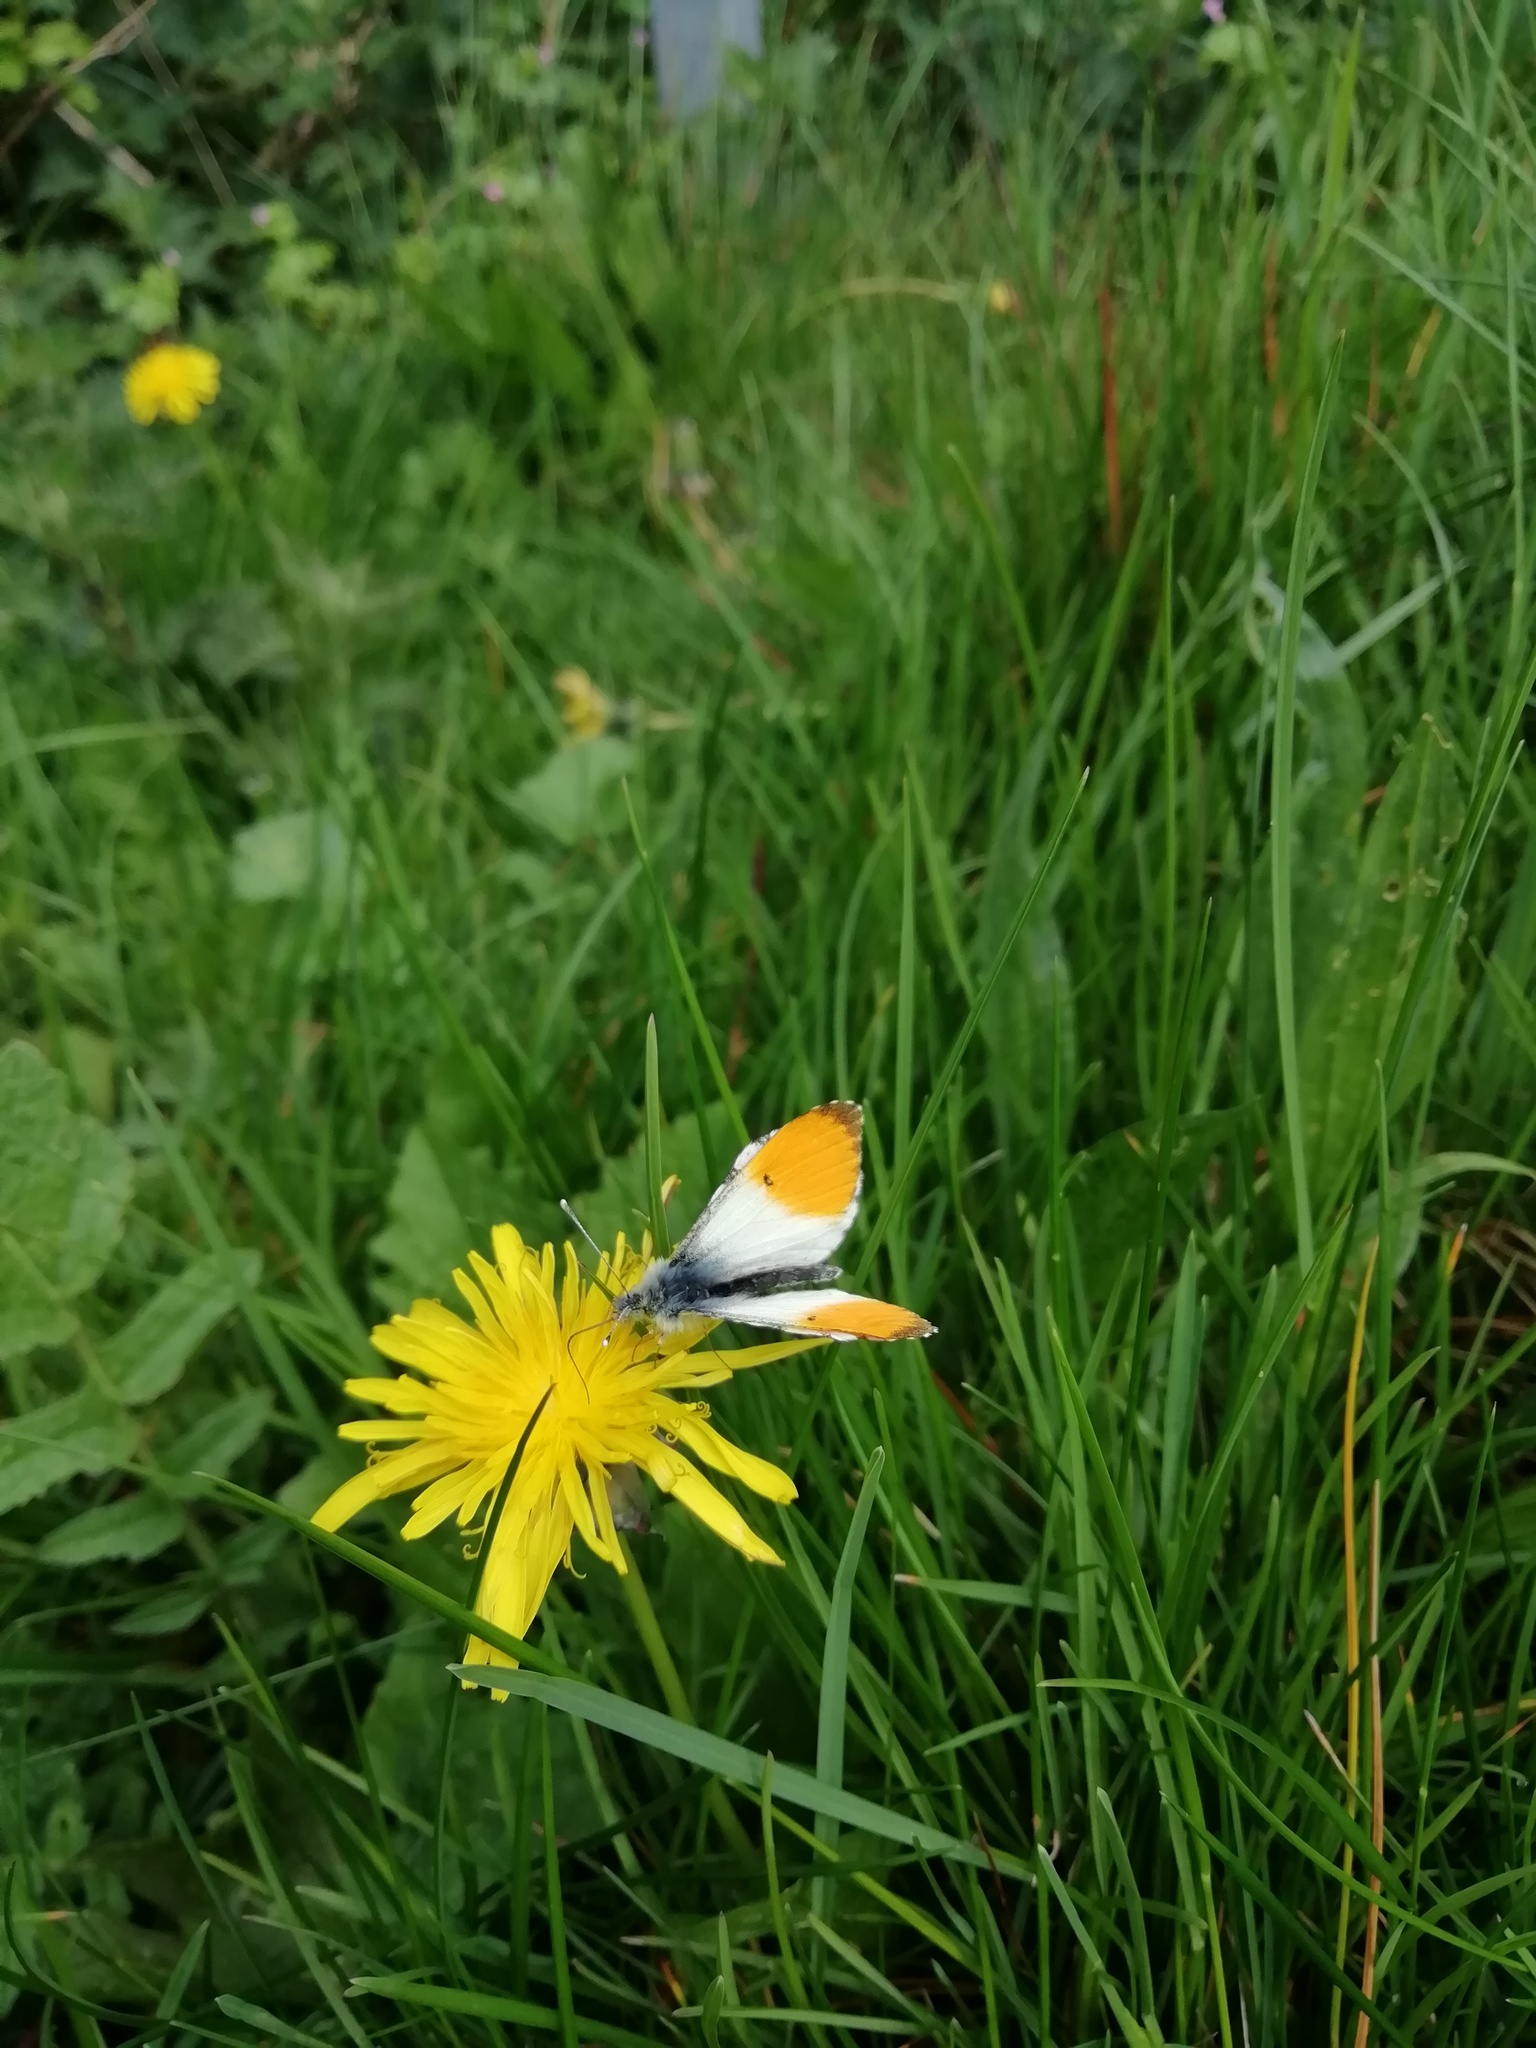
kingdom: Animalia
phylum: Arthropoda
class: Insecta
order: Lepidoptera
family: Pieridae
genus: Anthocharis
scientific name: Anthocharis cardamines
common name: Orange-tip
